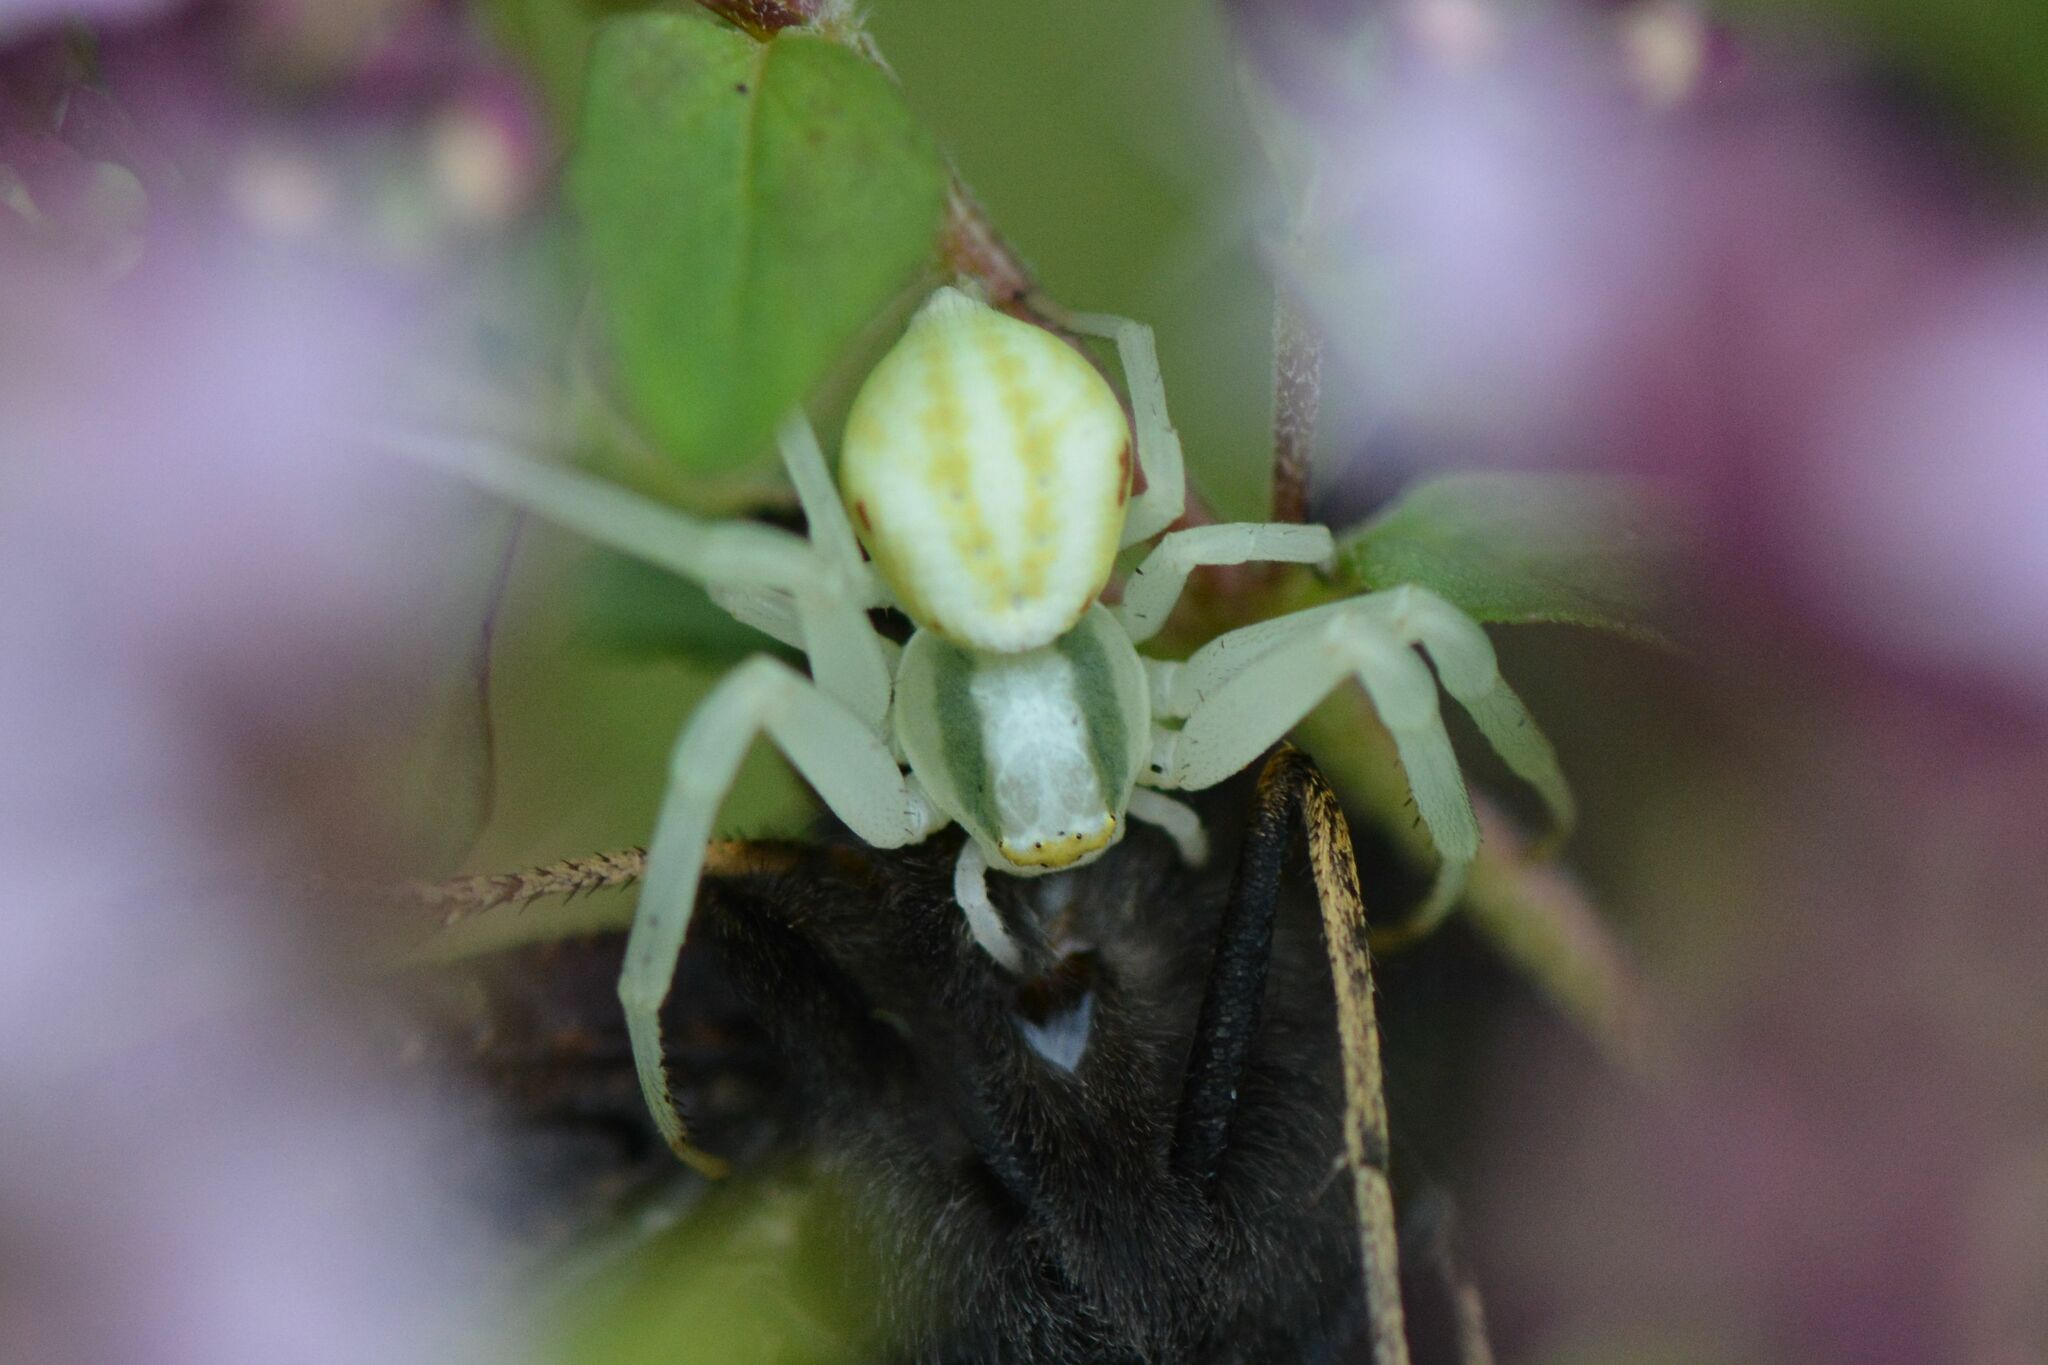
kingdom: Animalia
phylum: Arthropoda
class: Arachnida
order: Araneae
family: Thomisidae
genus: Misumena
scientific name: Misumena vatia
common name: Goldenrod crab spider
